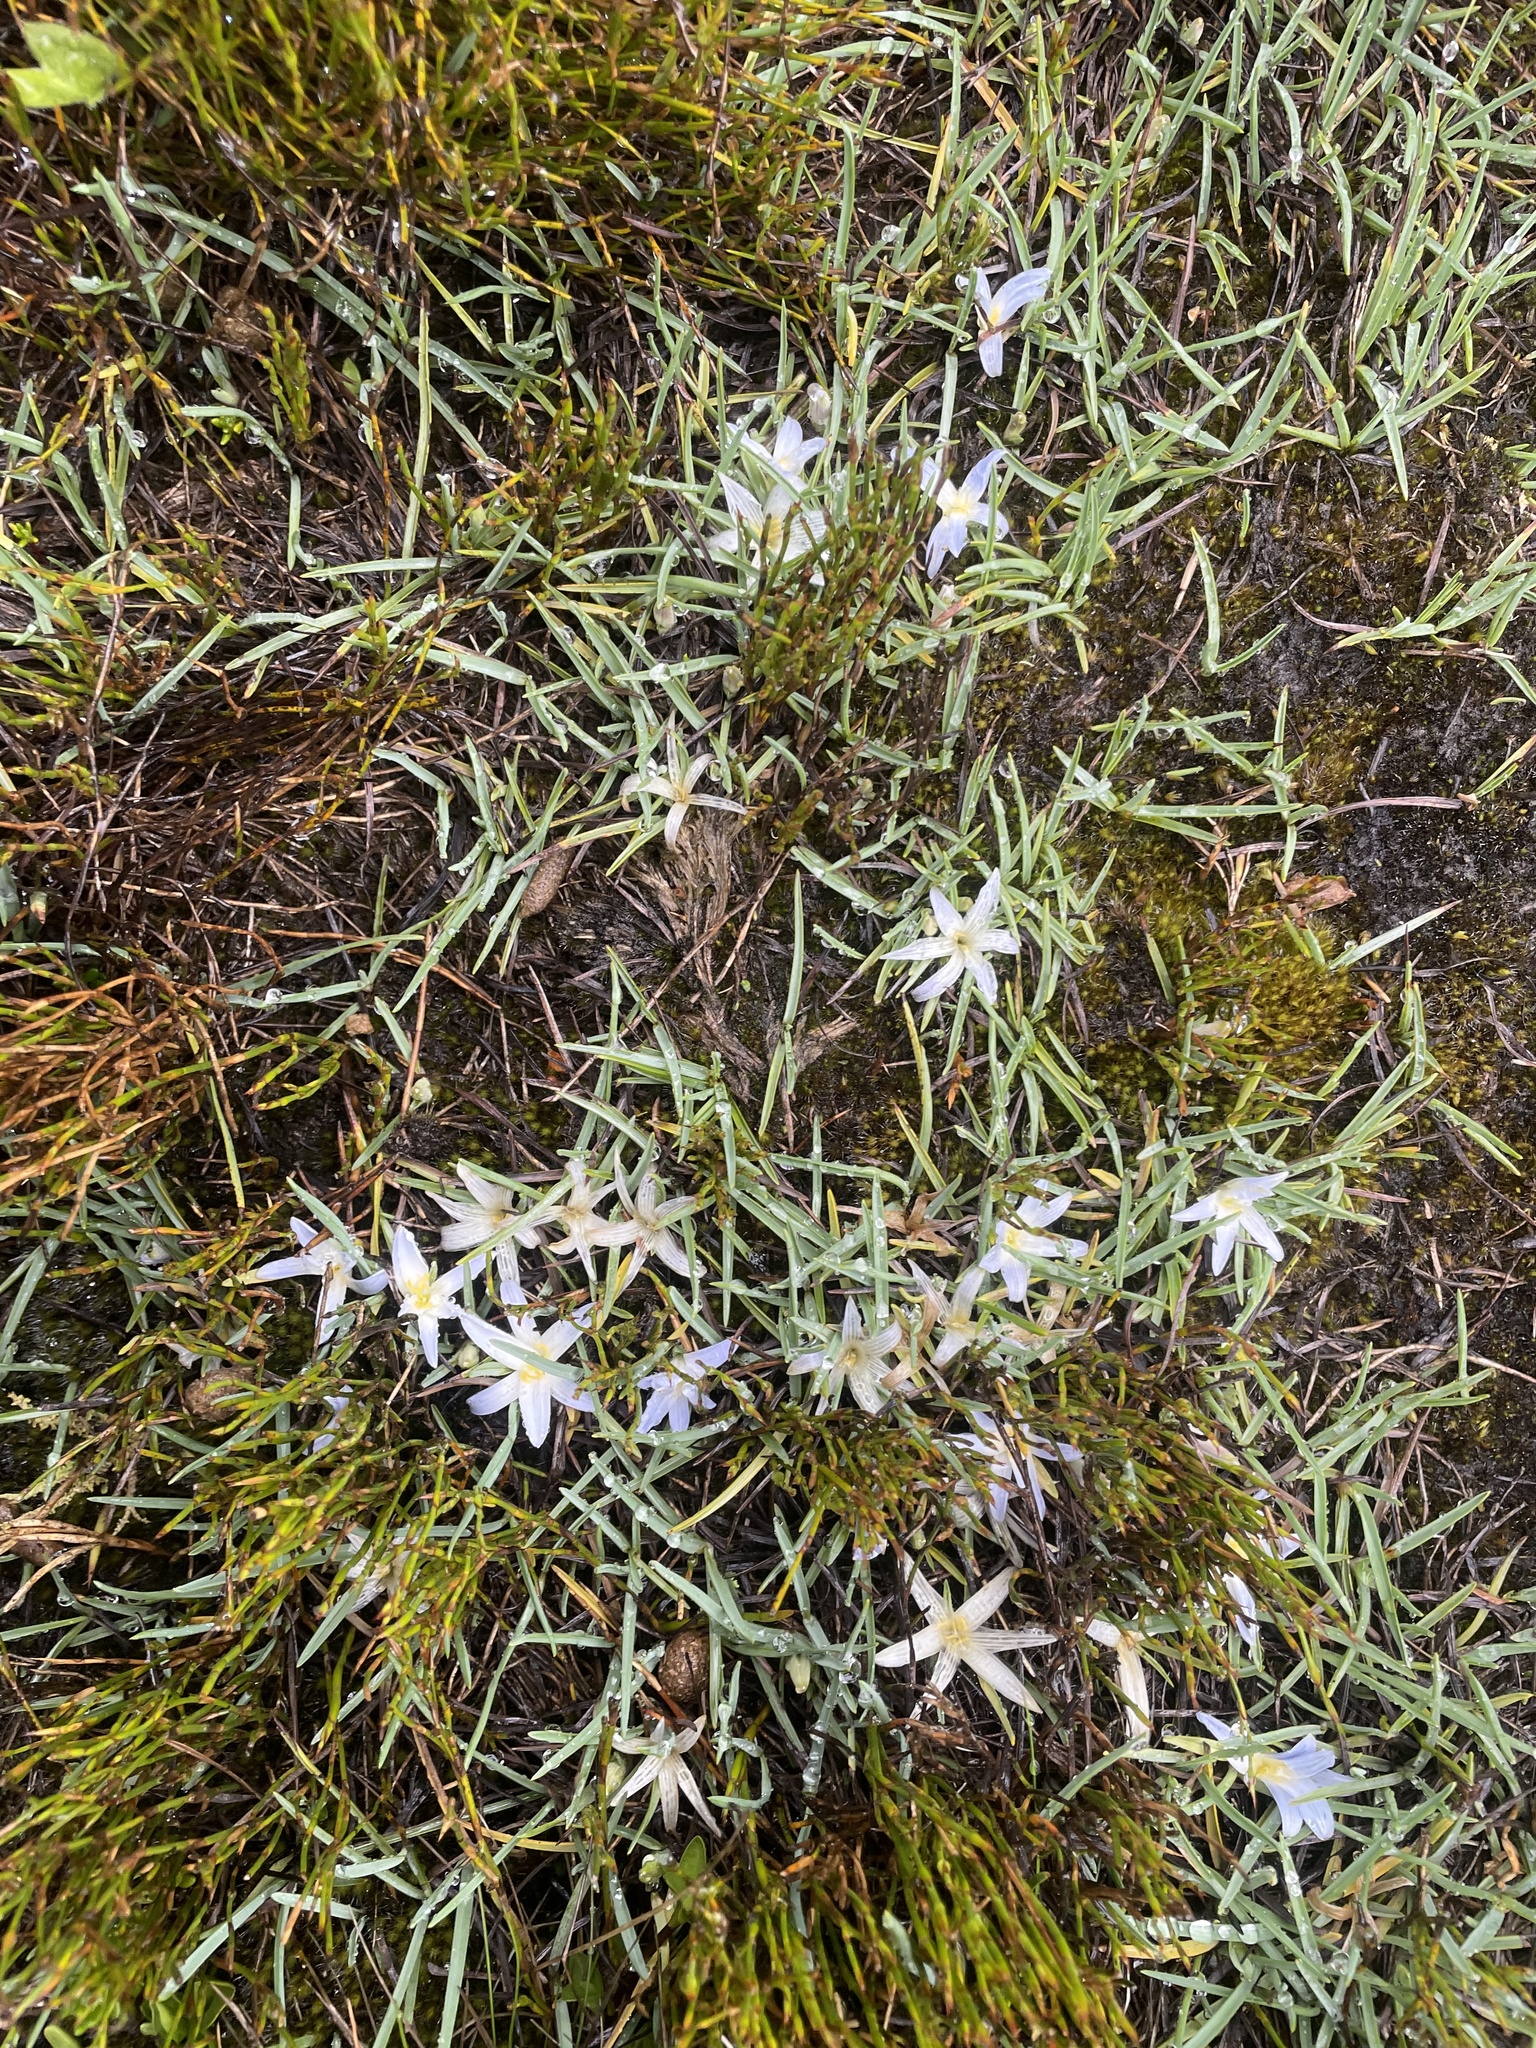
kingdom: Plantae
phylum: Tracheophyta
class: Liliopsida
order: Asparagales
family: Asphodelaceae
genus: Herpolirion
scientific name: Herpolirion novae-zelandiae
